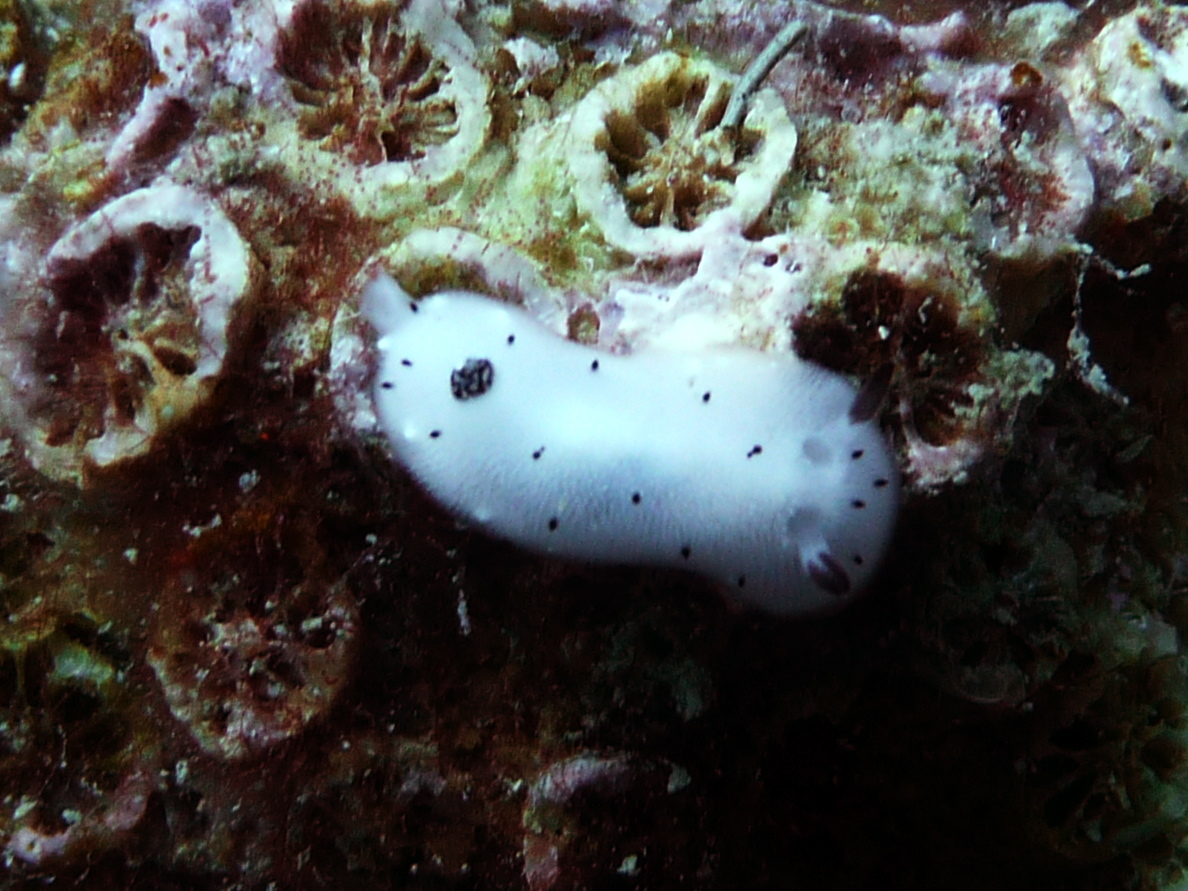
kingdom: Animalia
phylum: Mollusca
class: Gastropoda
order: Nudibranchia
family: Discodorididae
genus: Jorunna
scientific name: Jorunna funebris
